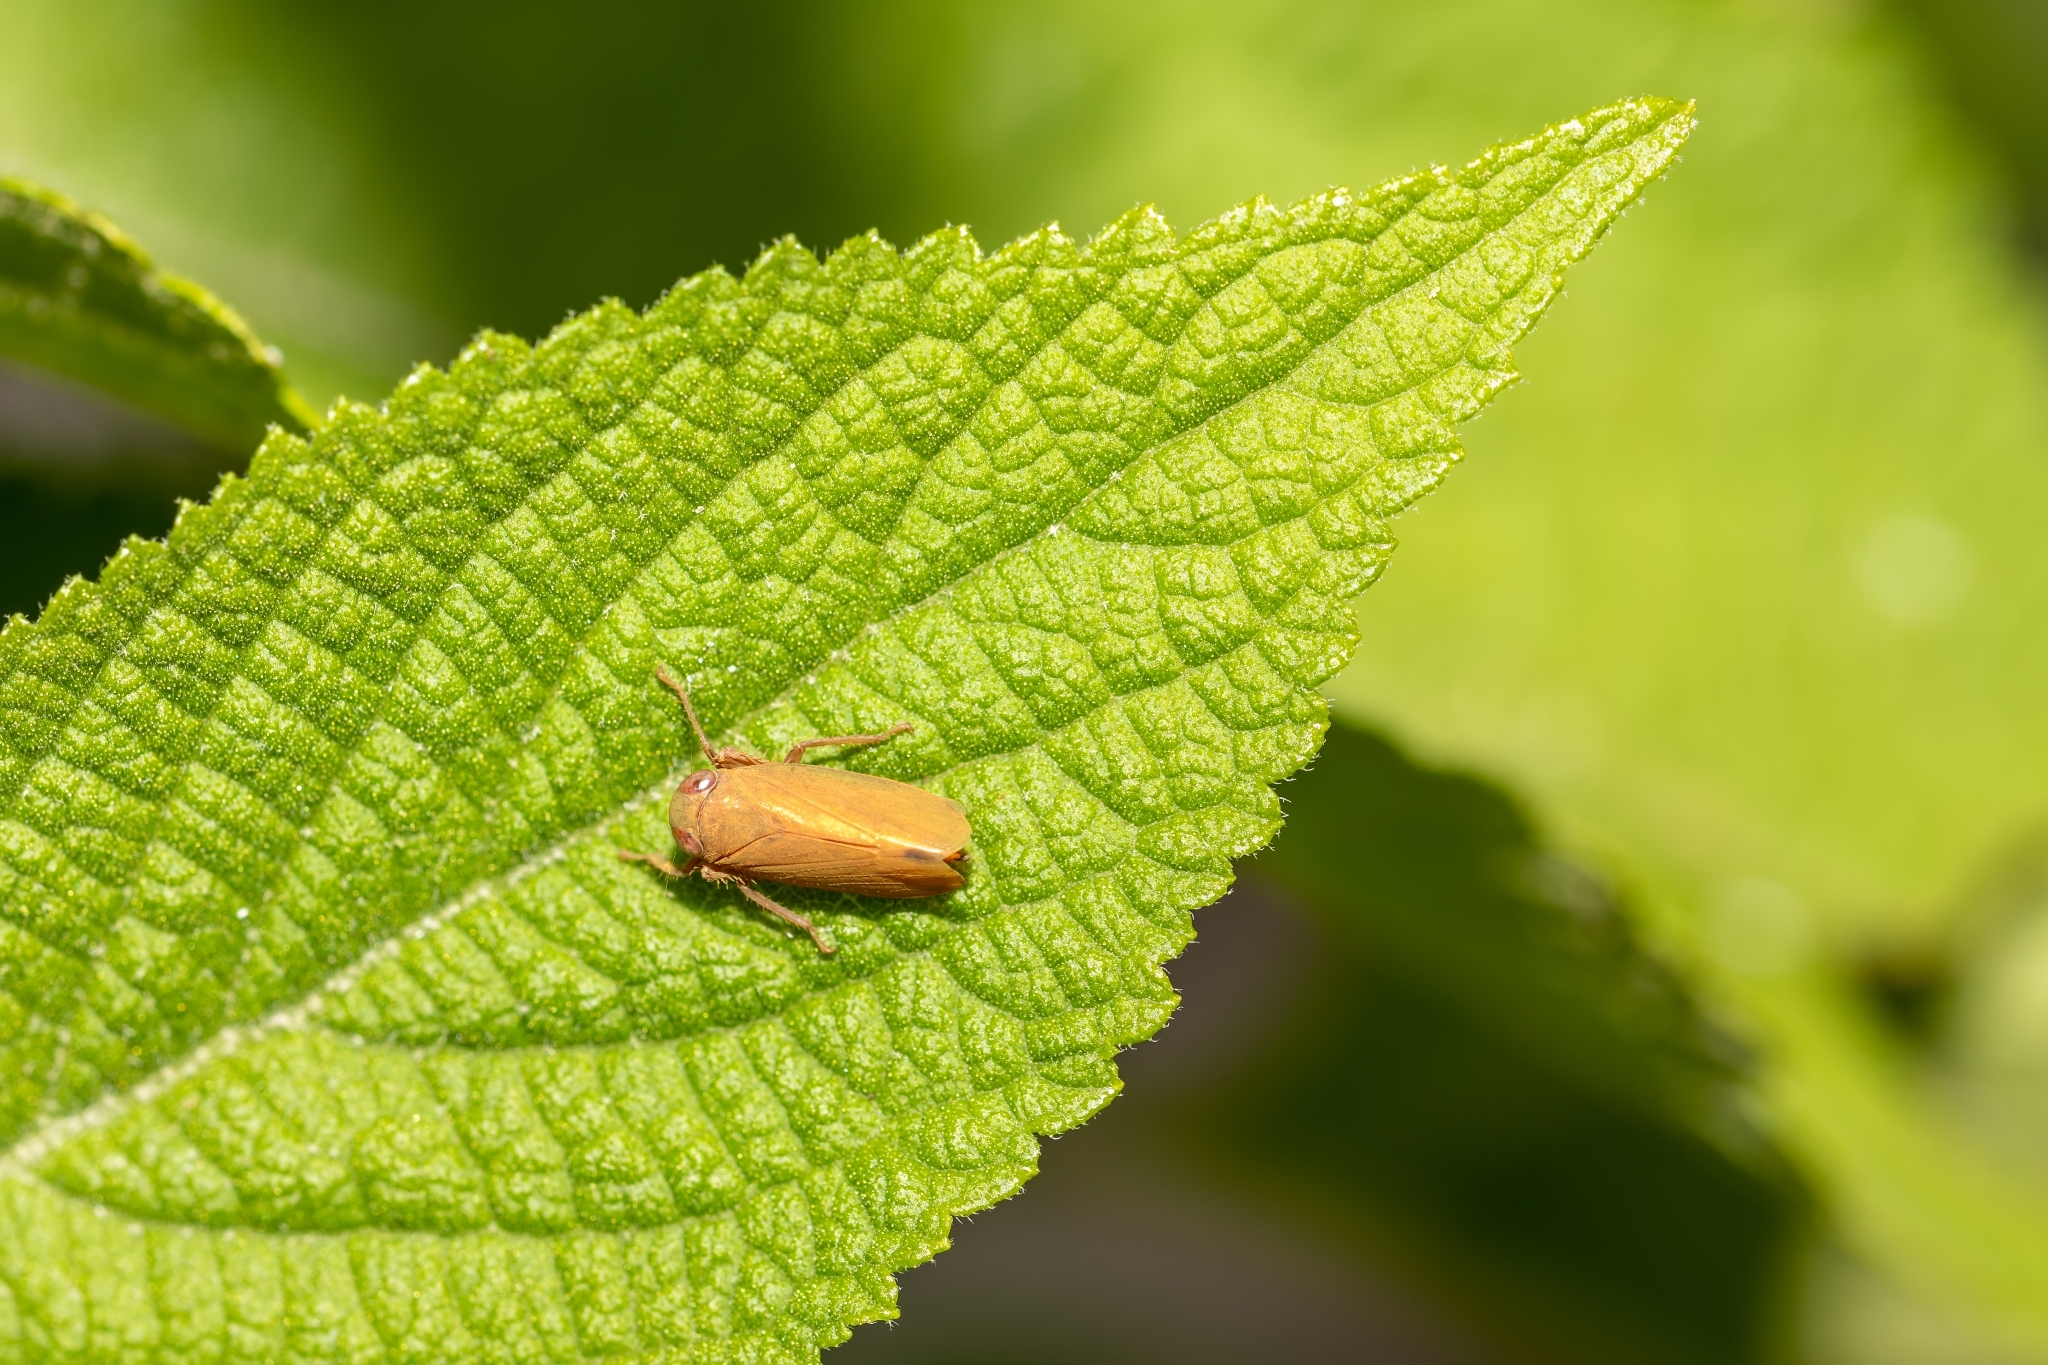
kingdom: Animalia
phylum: Arthropoda
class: Insecta
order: Hemiptera
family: Cicadellidae
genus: Jikradia
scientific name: Jikradia olitoria
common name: Coppery leafhopper
